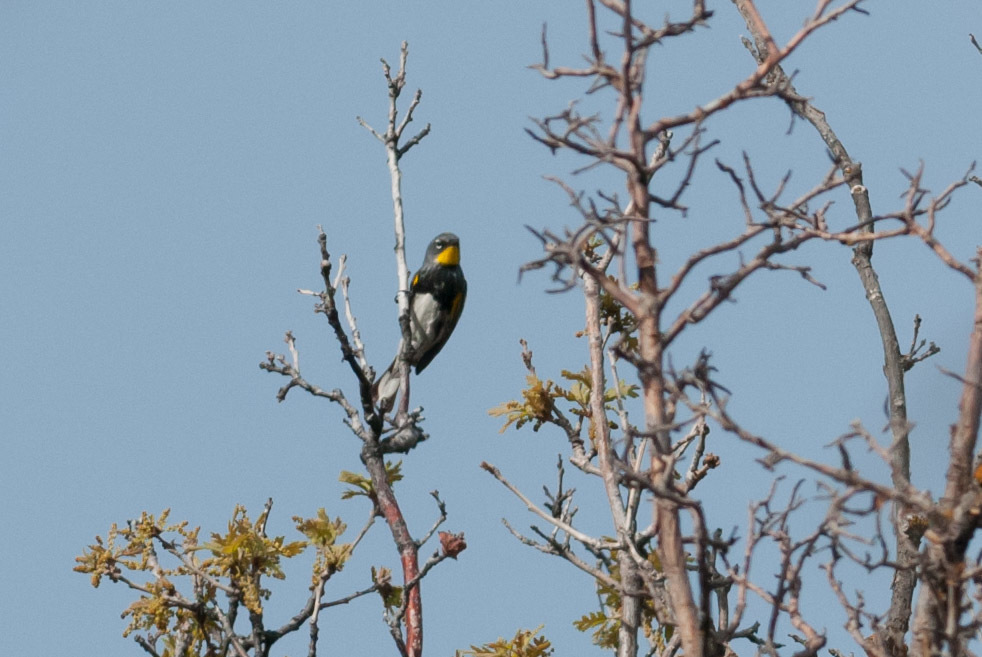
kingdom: Animalia
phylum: Chordata
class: Aves
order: Passeriformes
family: Parulidae
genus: Setophaga
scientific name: Setophaga auduboni
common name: Audubon's warbler
